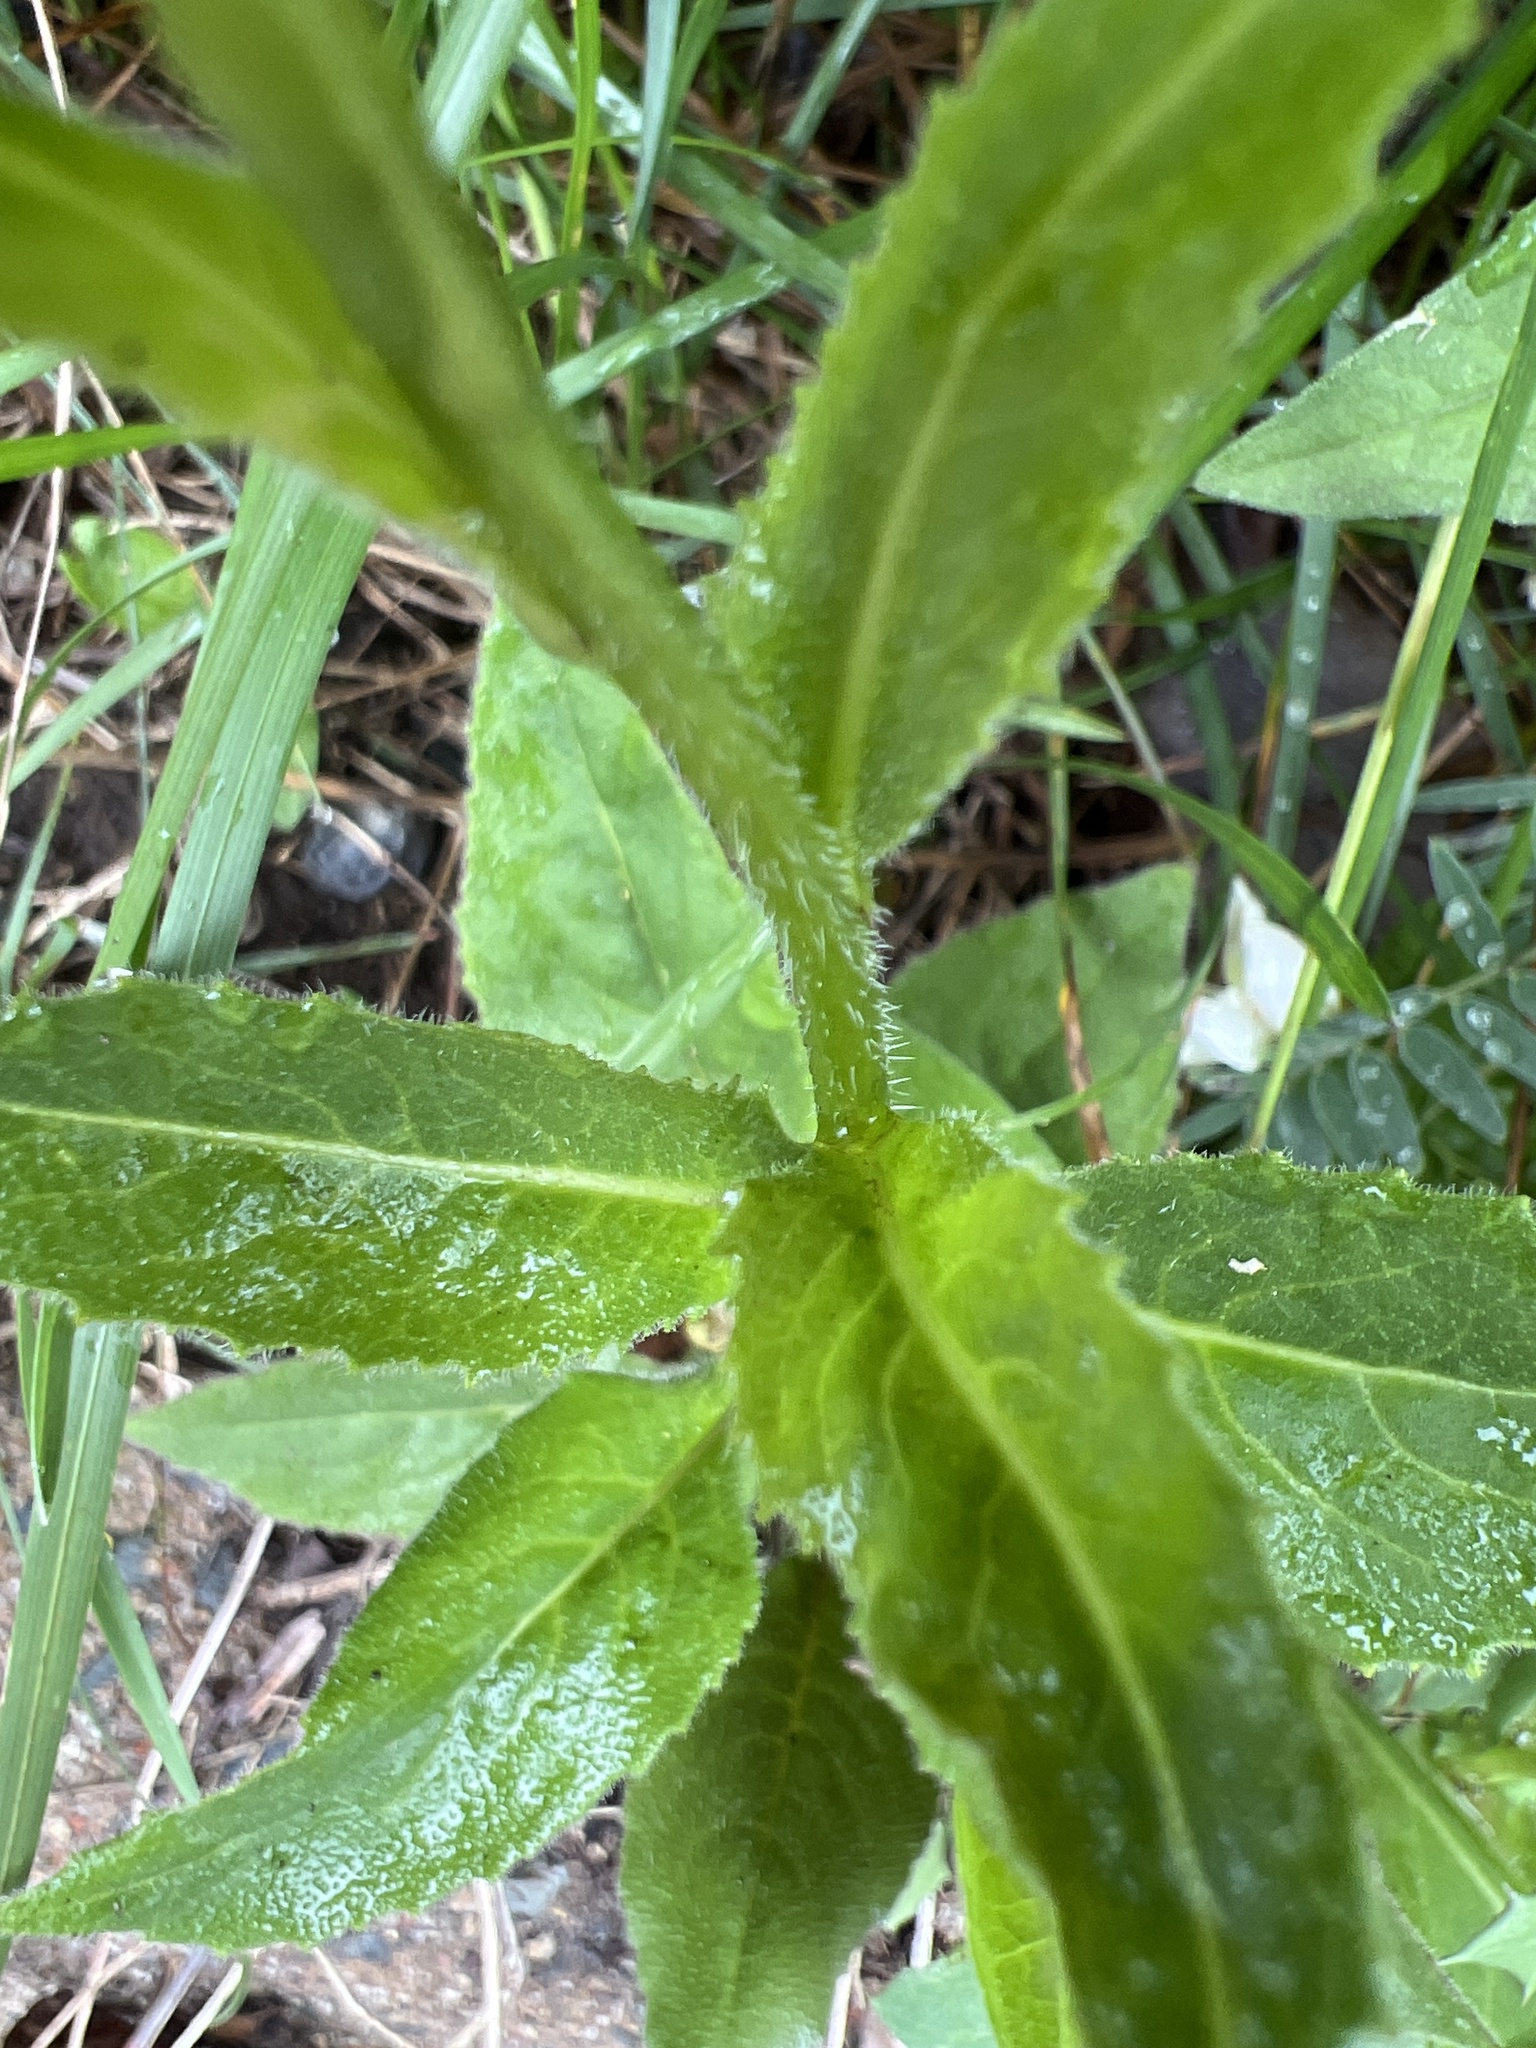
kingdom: Plantae
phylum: Tracheophyta
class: Magnoliopsida
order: Brassicales
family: Brassicaceae
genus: Hesperis
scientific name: Hesperis matronalis
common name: Dame's-violet
